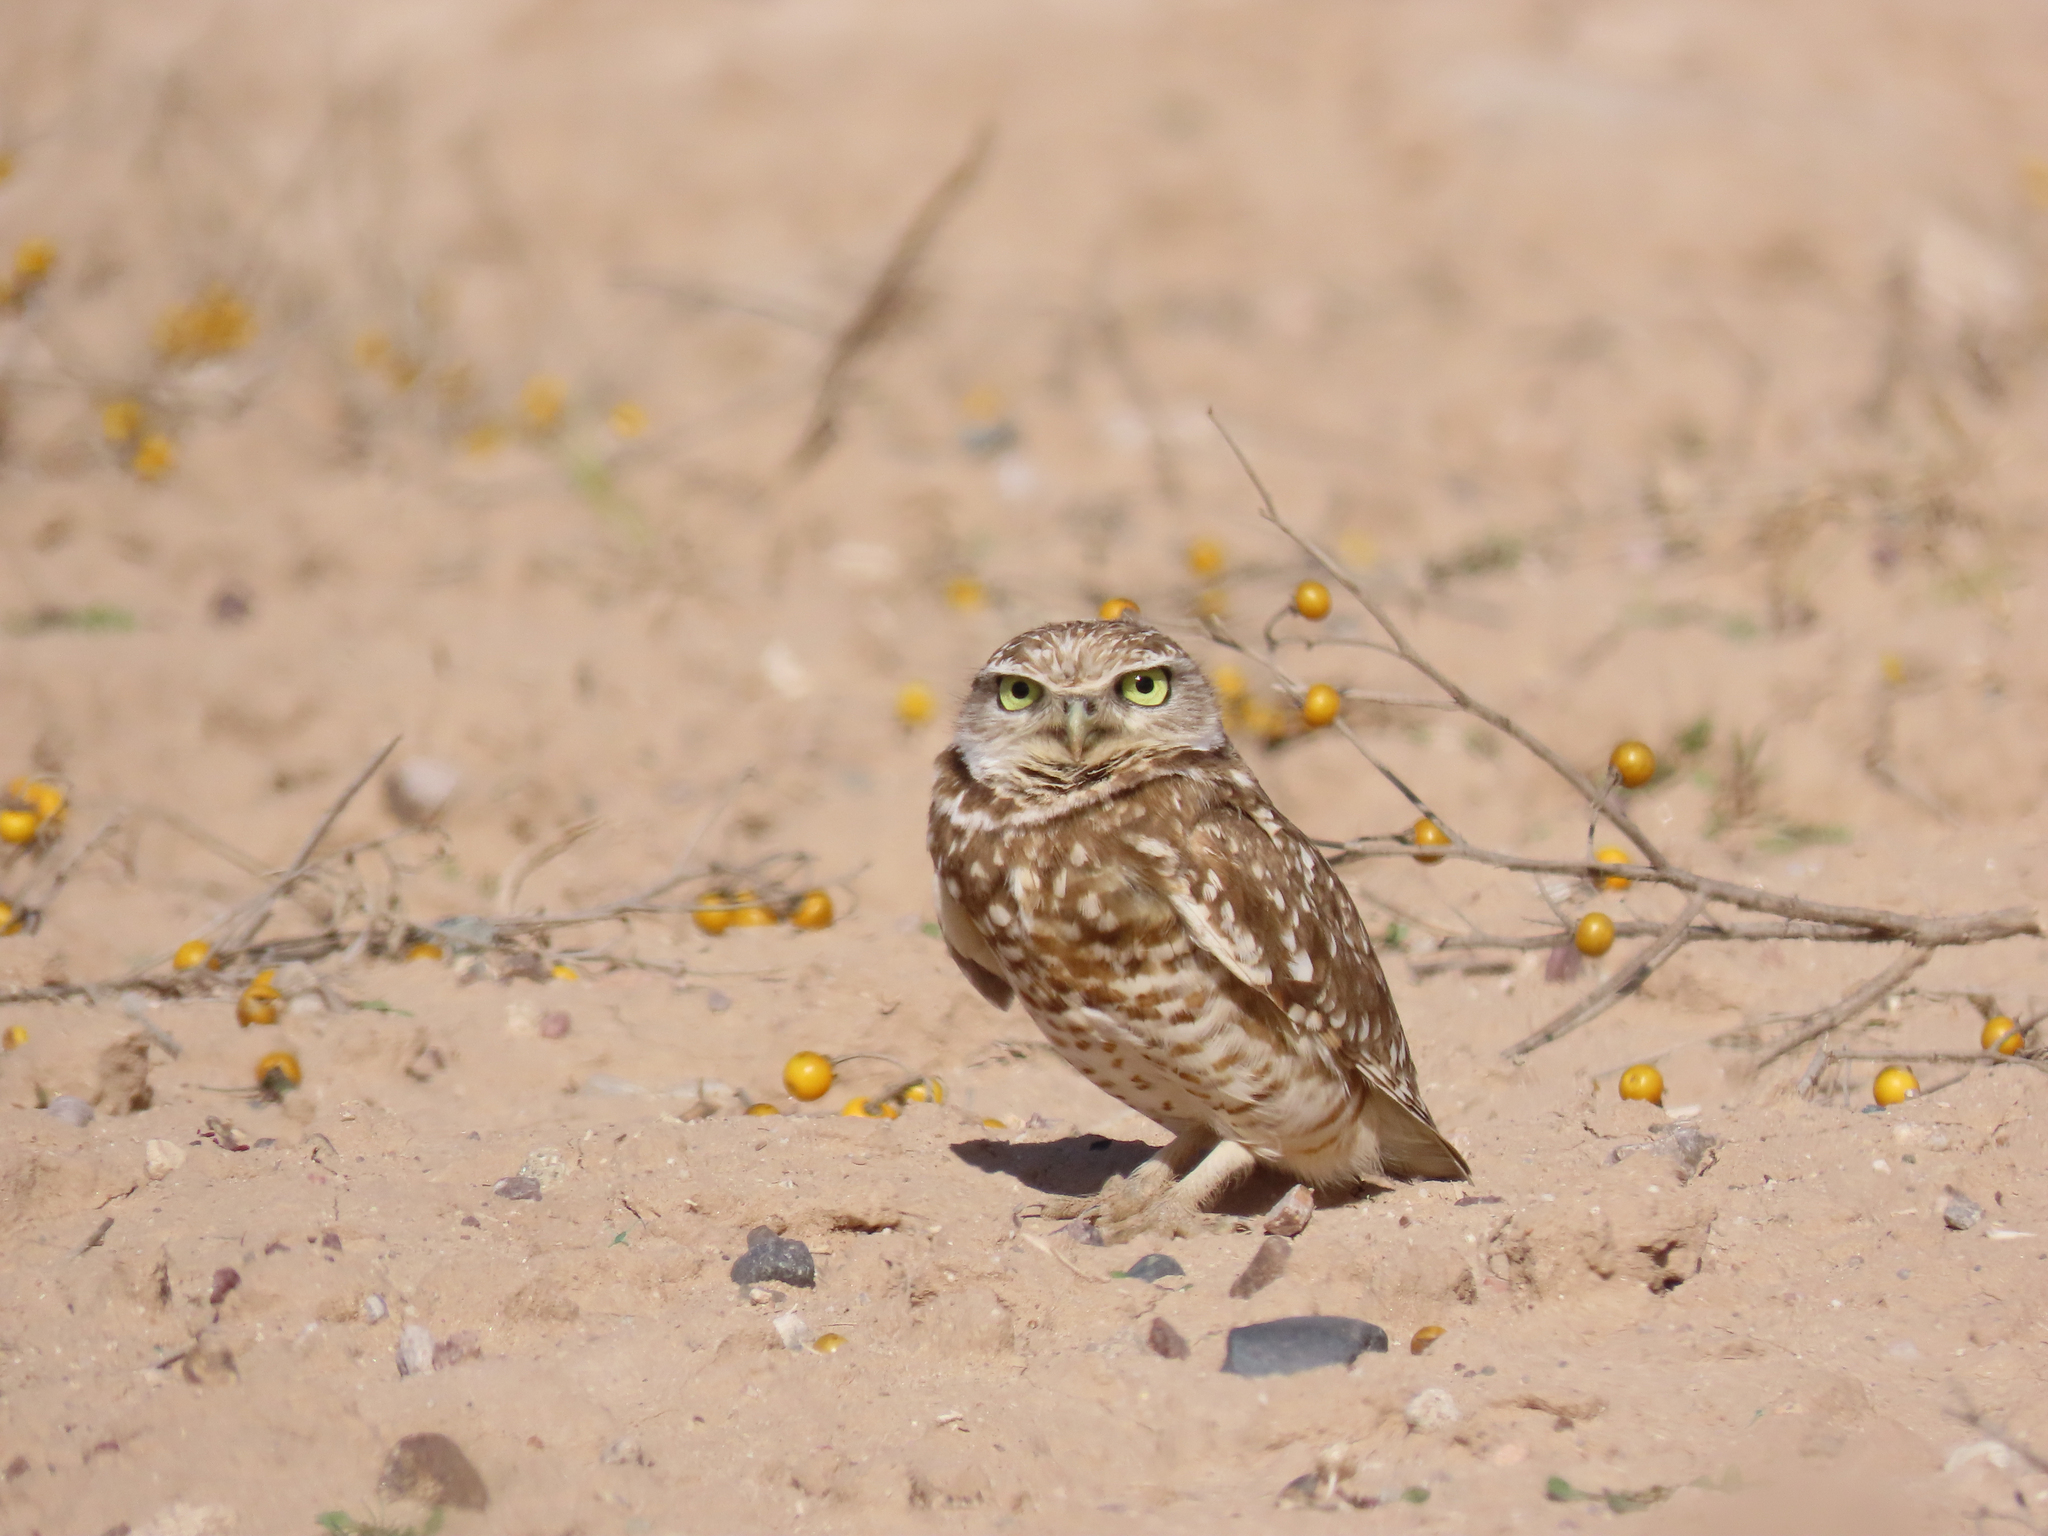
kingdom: Animalia
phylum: Chordata
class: Aves
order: Strigiformes
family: Strigidae
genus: Athene
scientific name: Athene cunicularia
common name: Burrowing owl
